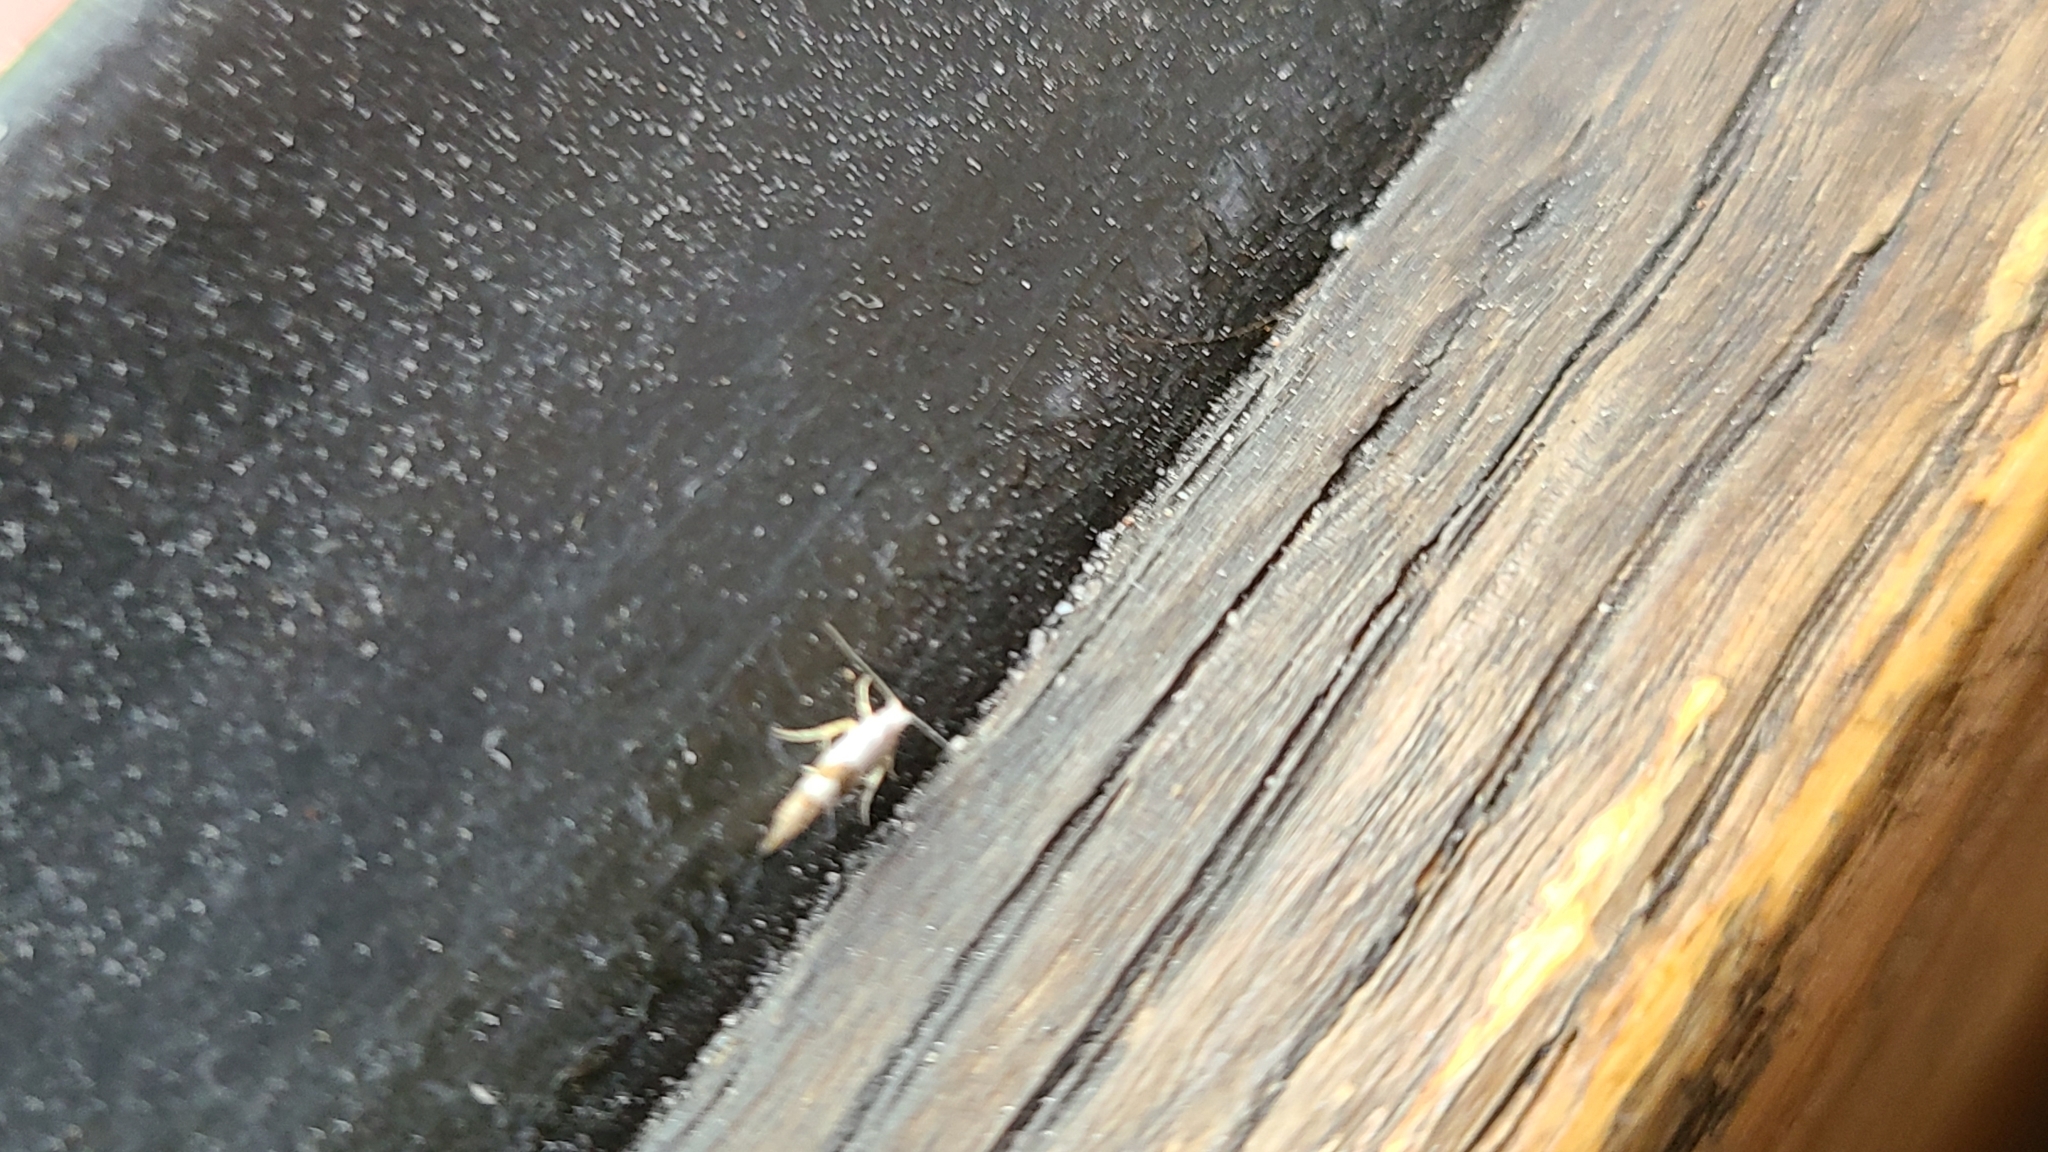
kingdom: Animalia
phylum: Arthropoda
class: Insecta
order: Lepidoptera
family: Argyresthiidae
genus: Argyresthia
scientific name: Argyresthia inscriptella
